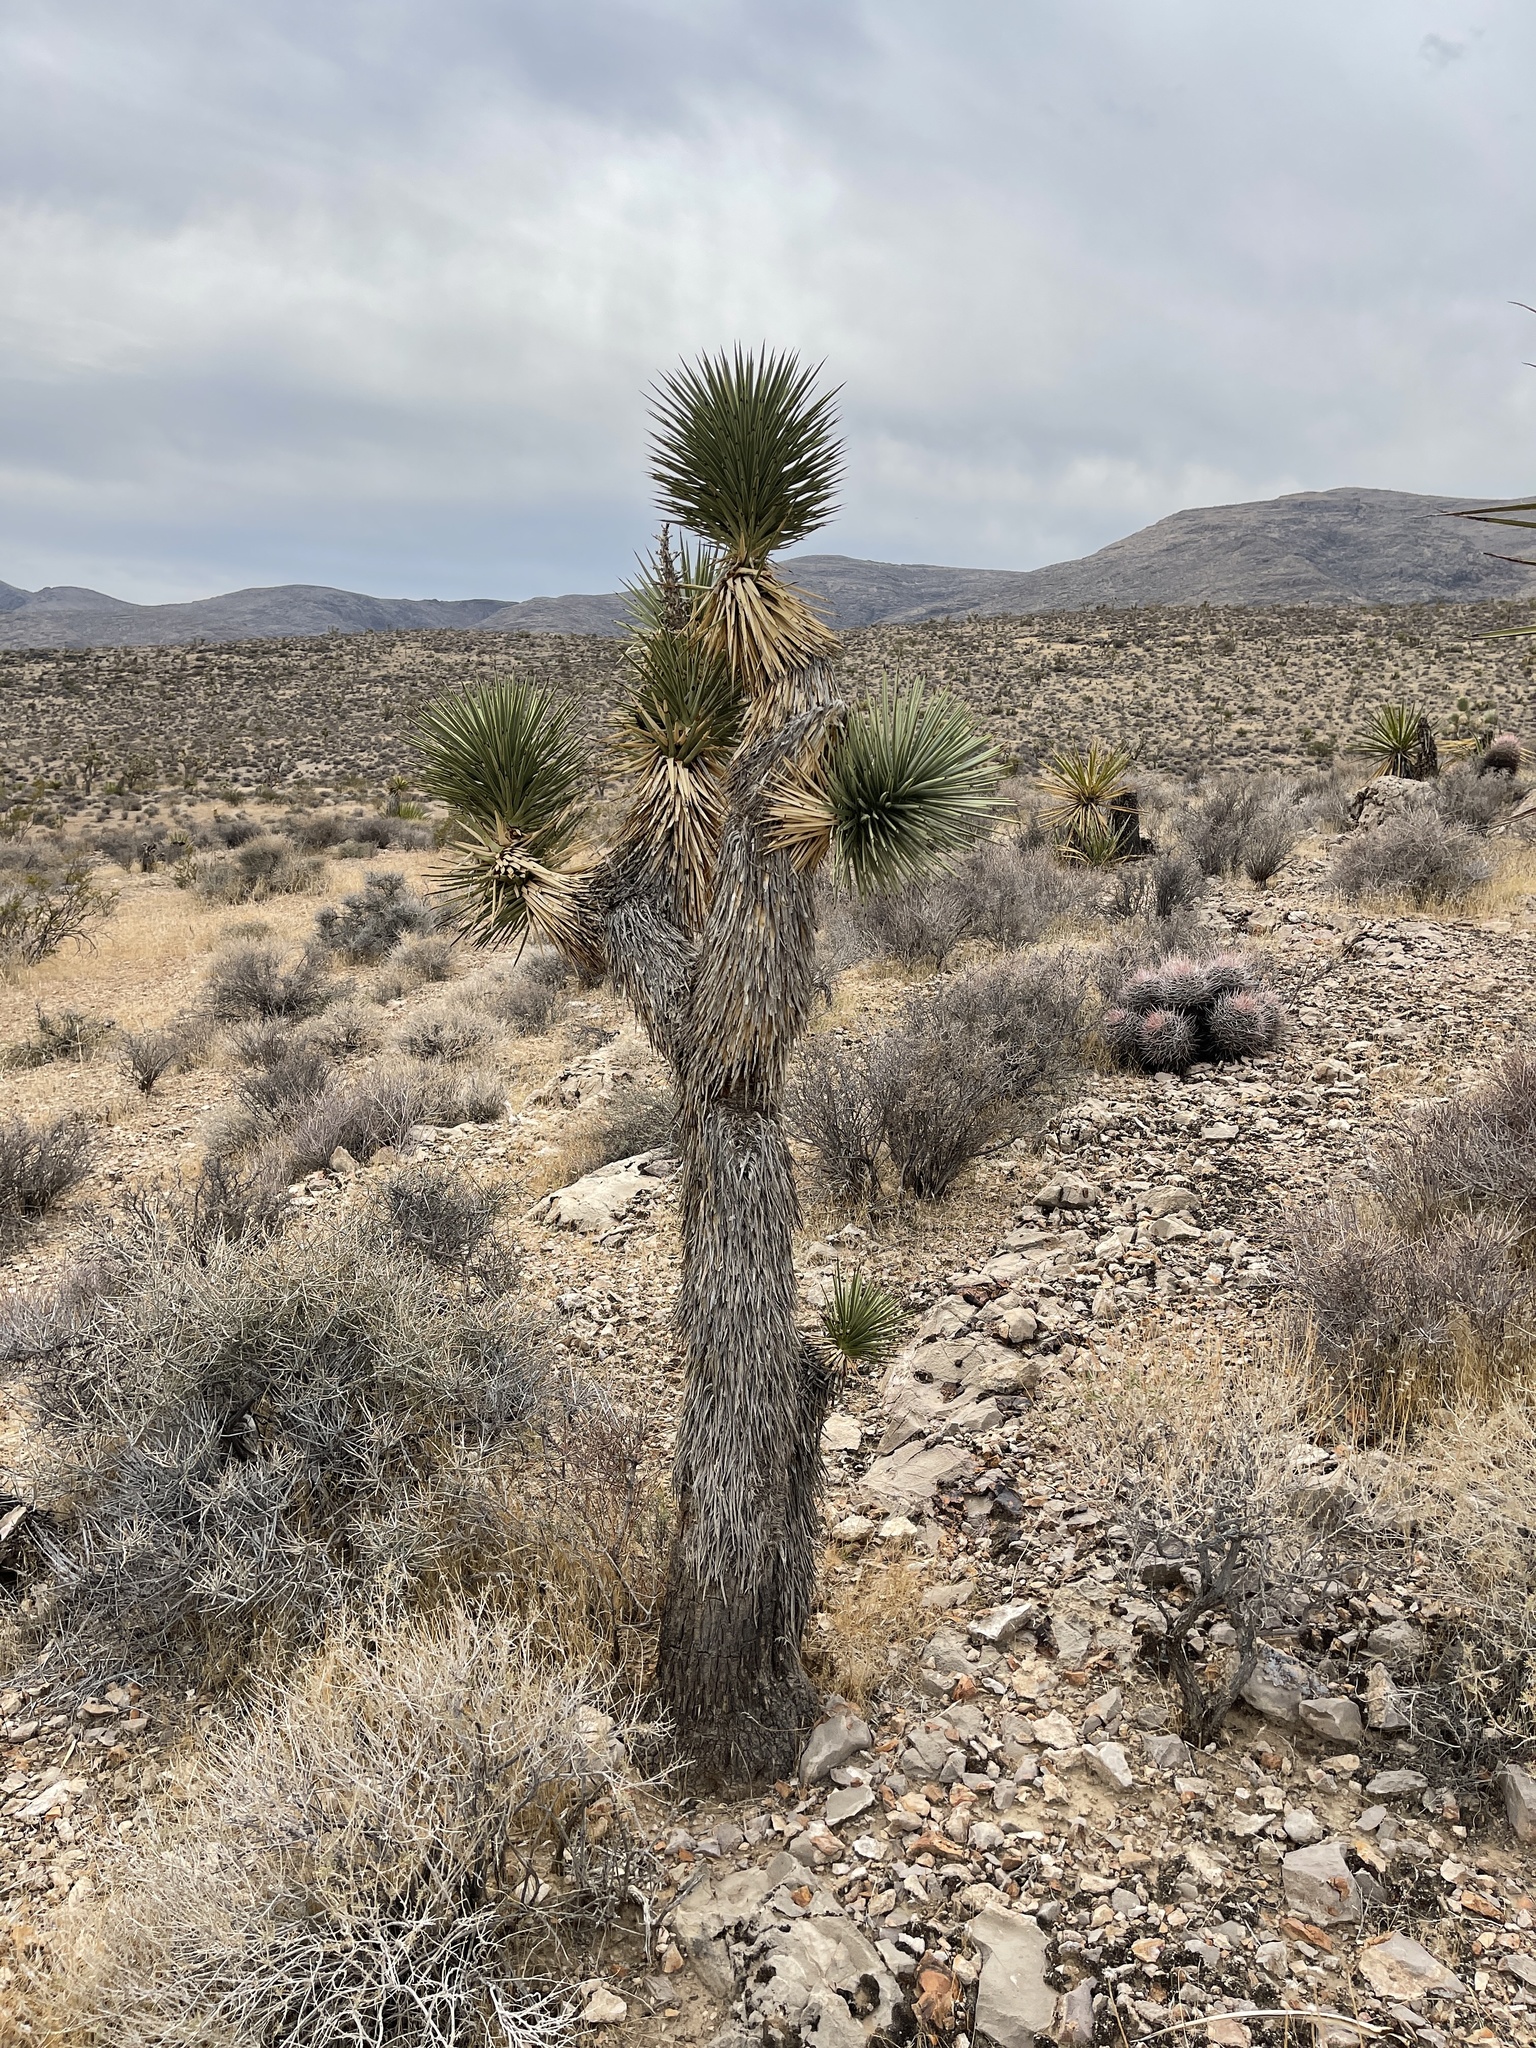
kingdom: Plantae
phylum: Tracheophyta
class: Liliopsida
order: Asparagales
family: Asparagaceae
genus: Yucca
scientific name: Yucca brevifolia
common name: Joshua tree
